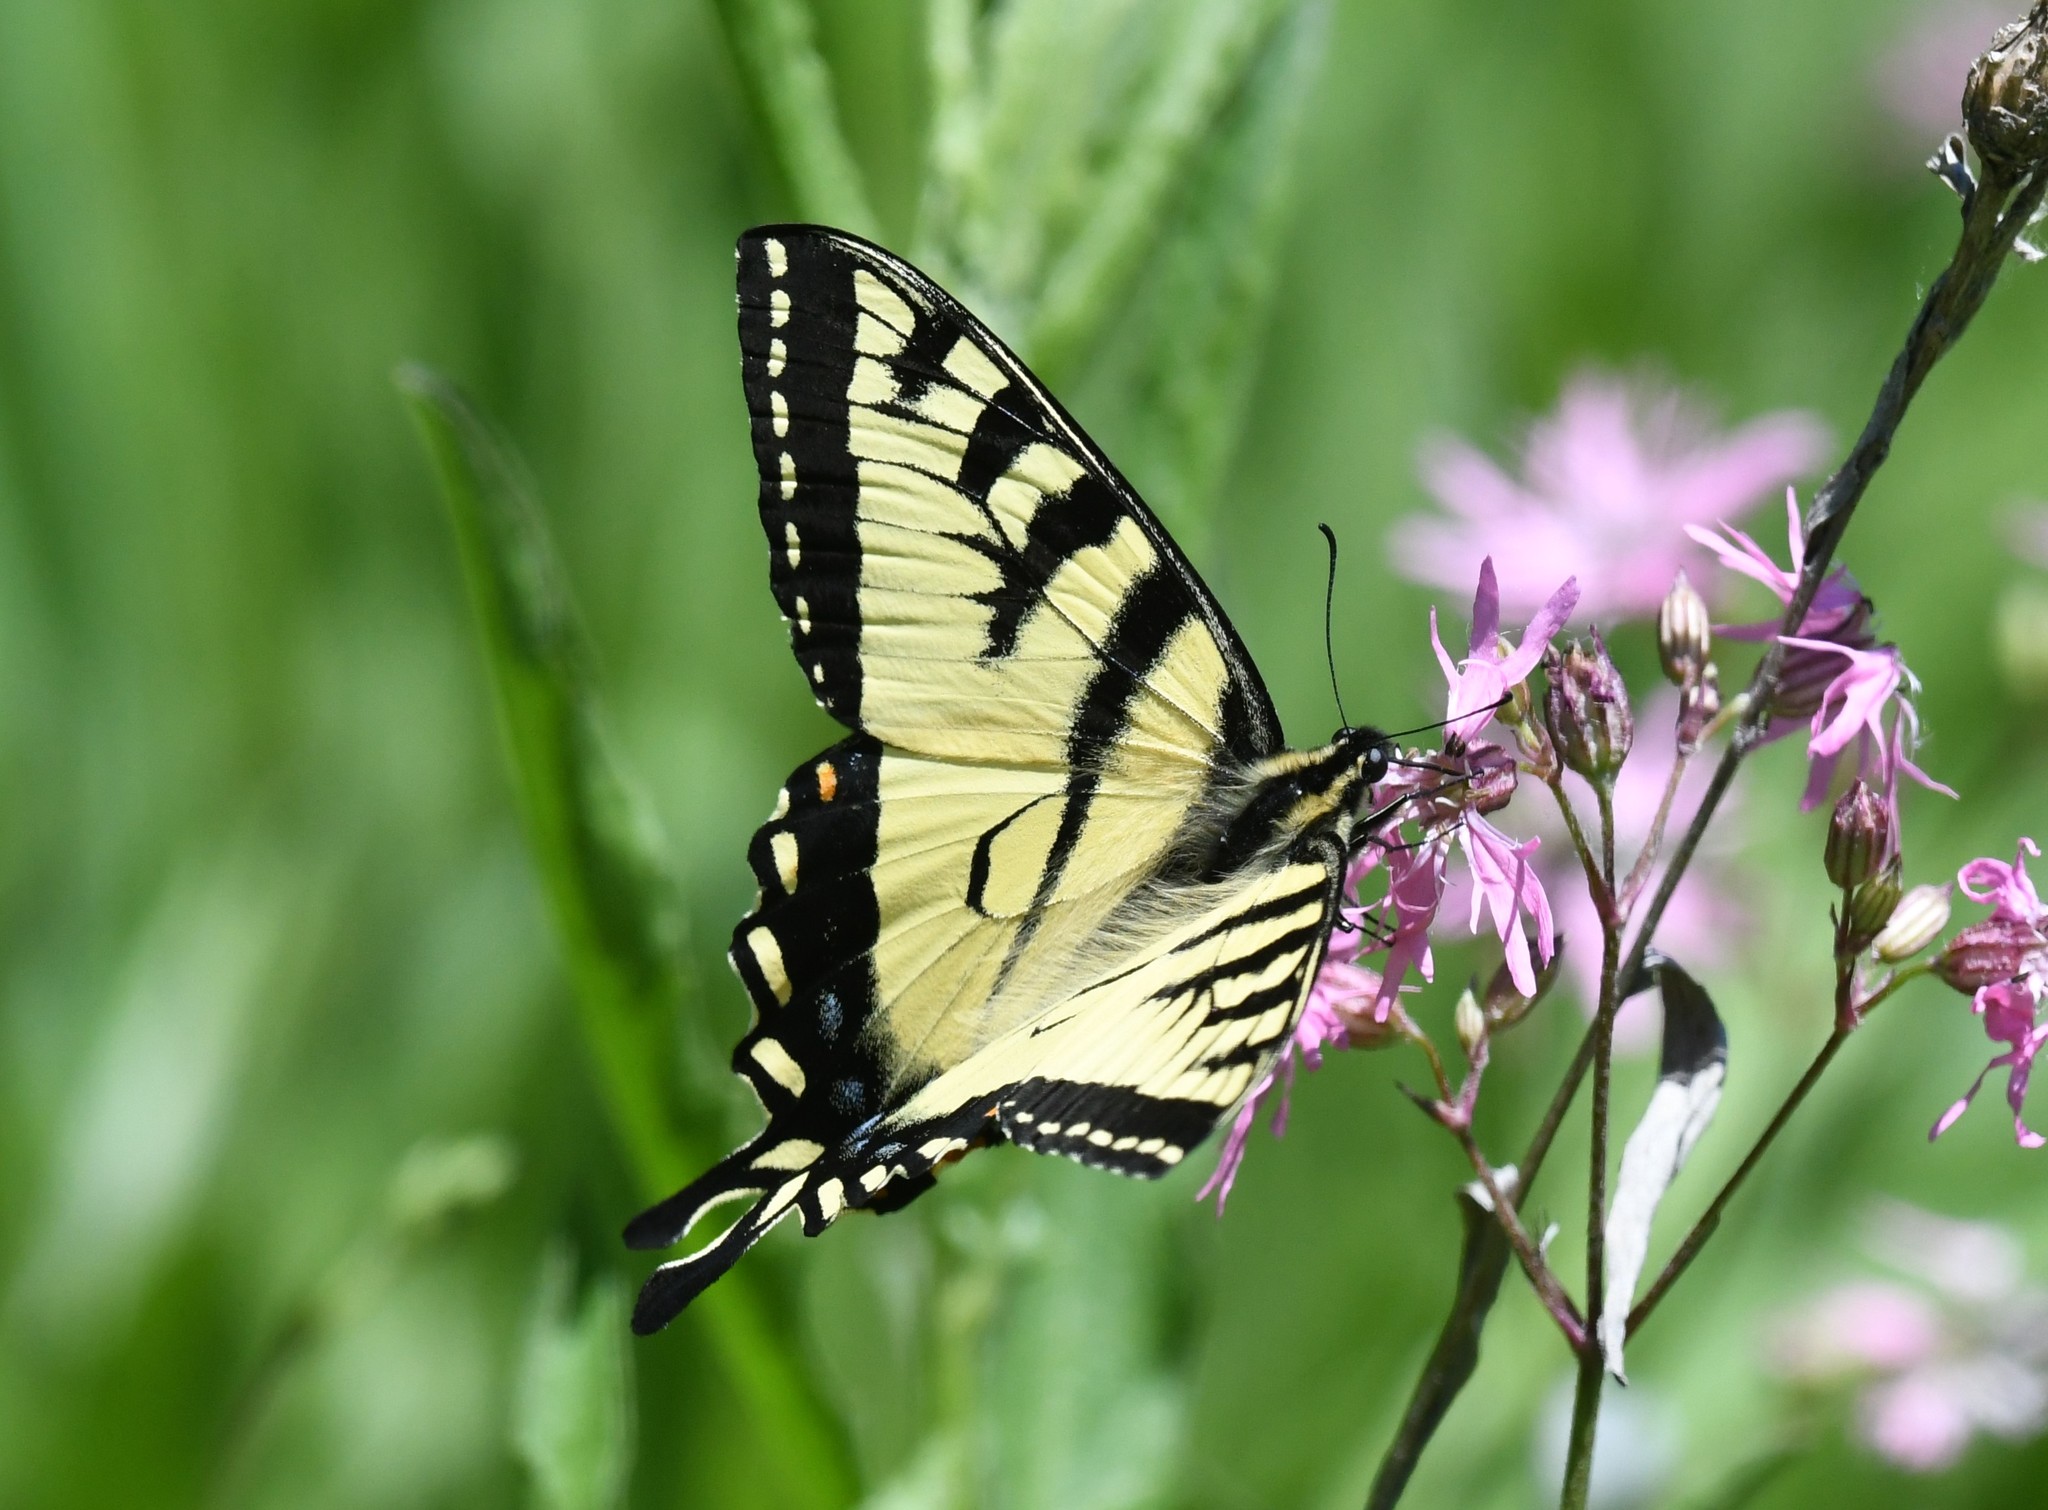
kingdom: Animalia
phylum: Arthropoda
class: Insecta
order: Lepidoptera
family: Papilionidae
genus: Papilio
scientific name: Papilio canadensis
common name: Canadian tiger swallowtail
